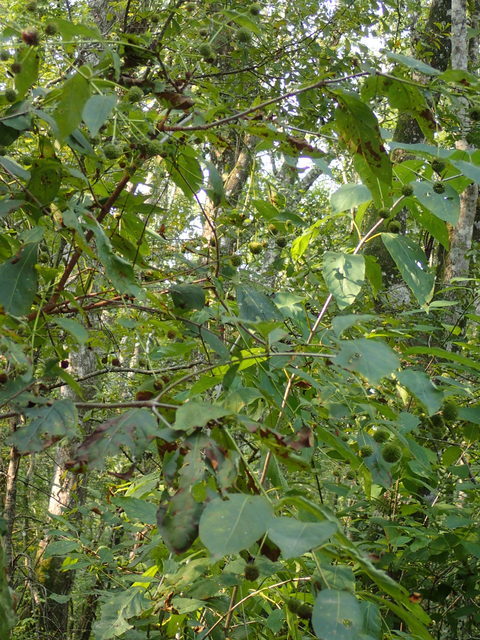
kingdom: Plantae
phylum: Tracheophyta
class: Magnoliopsida
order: Gentianales
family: Rubiaceae
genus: Cephalanthus
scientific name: Cephalanthus occidentalis
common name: Button-willow
